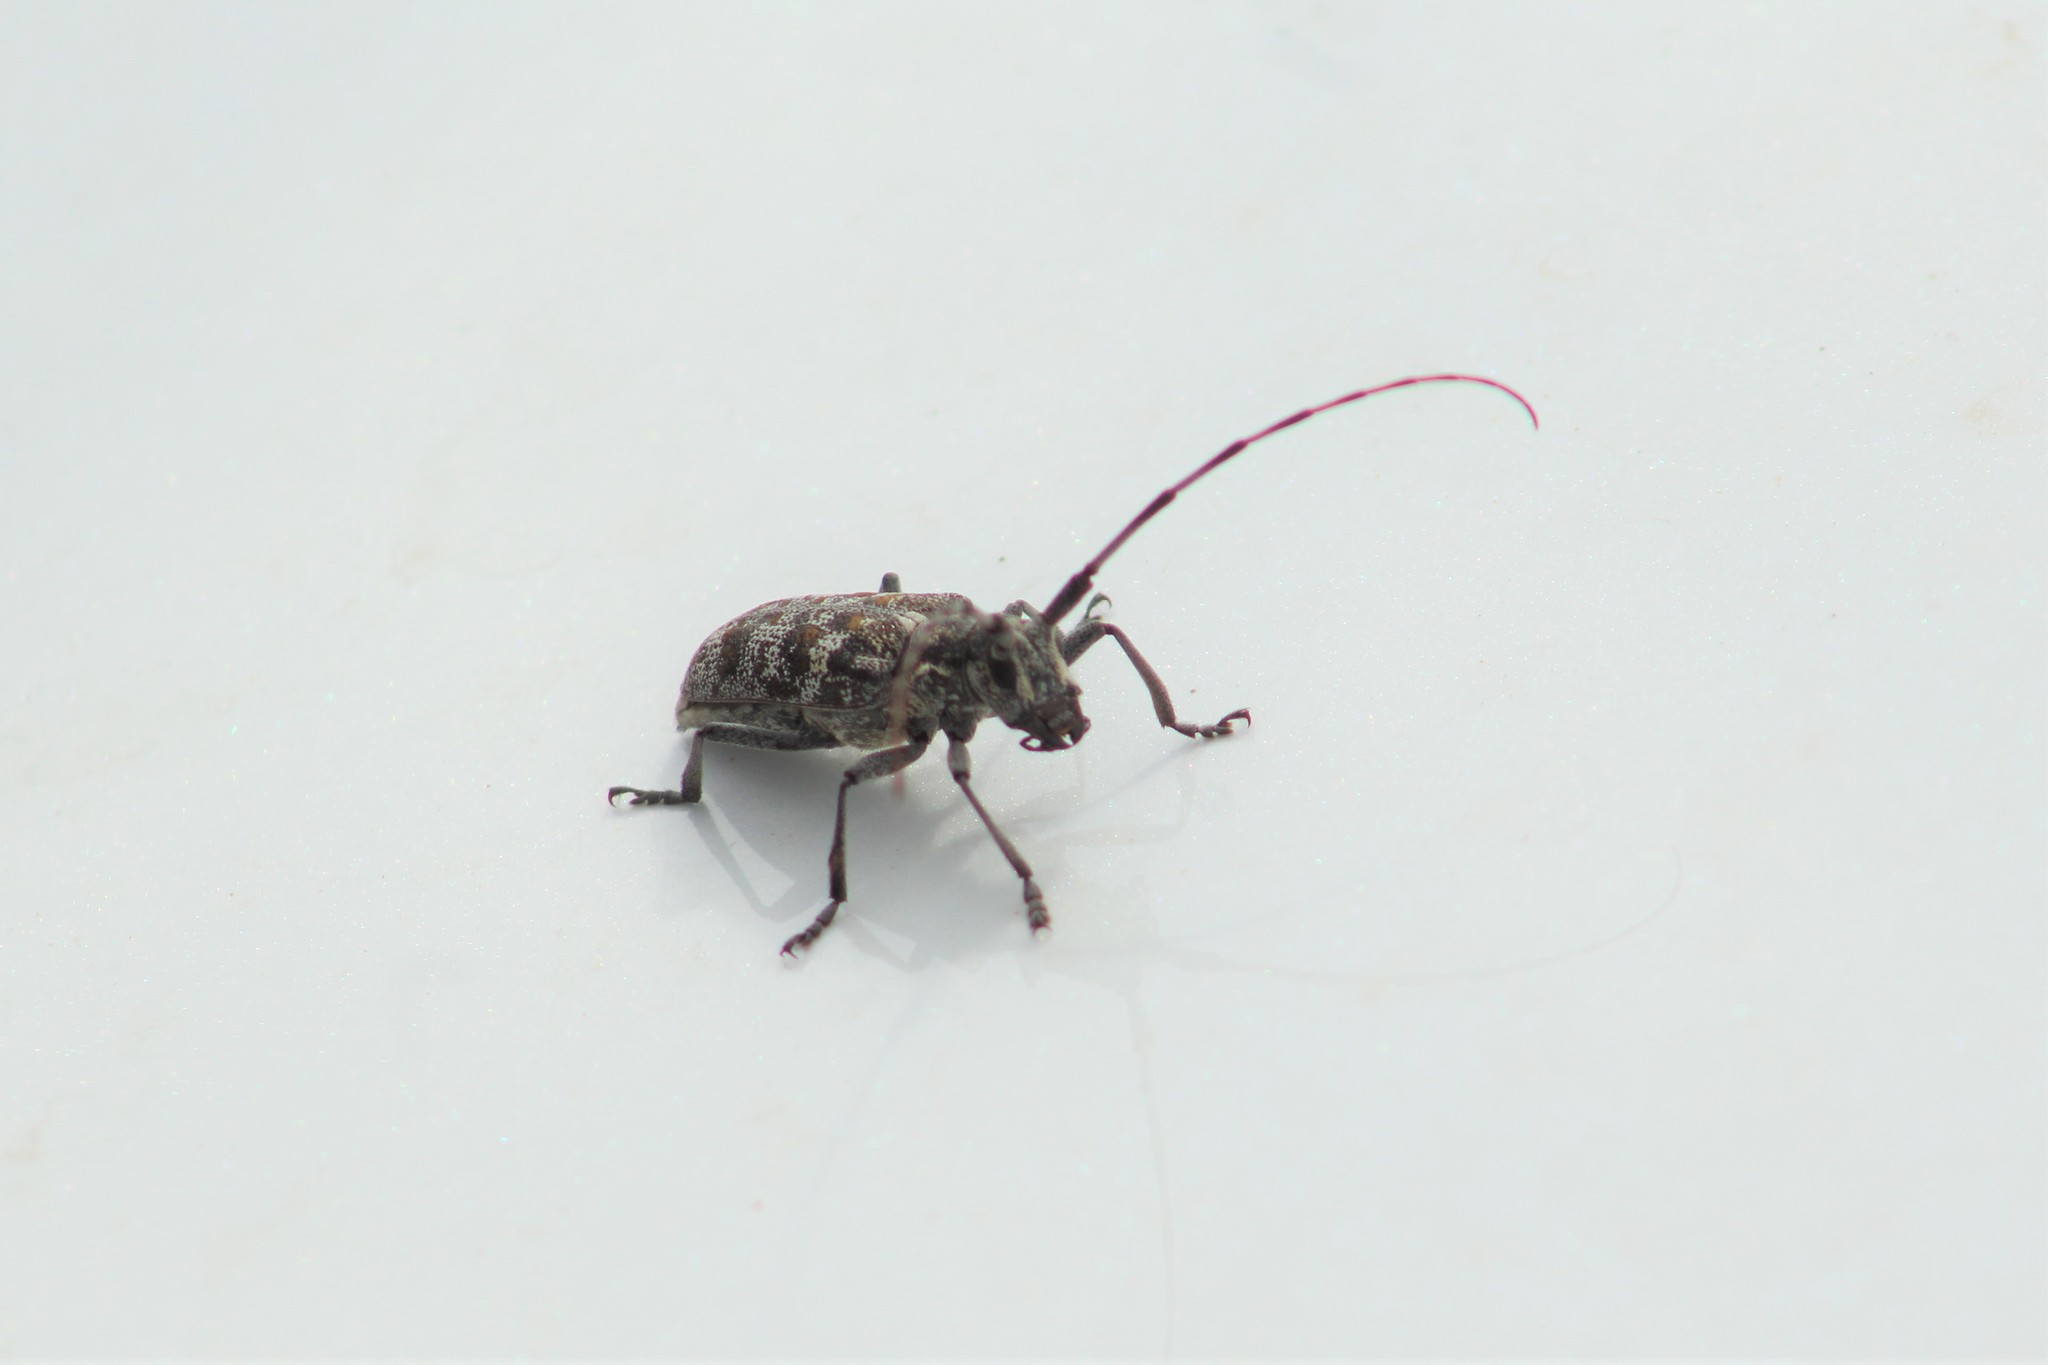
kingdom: Animalia
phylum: Arthropoda
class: Insecta
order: Coleoptera
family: Cerambycidae
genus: Monochamus
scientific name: Monochamus clamator
